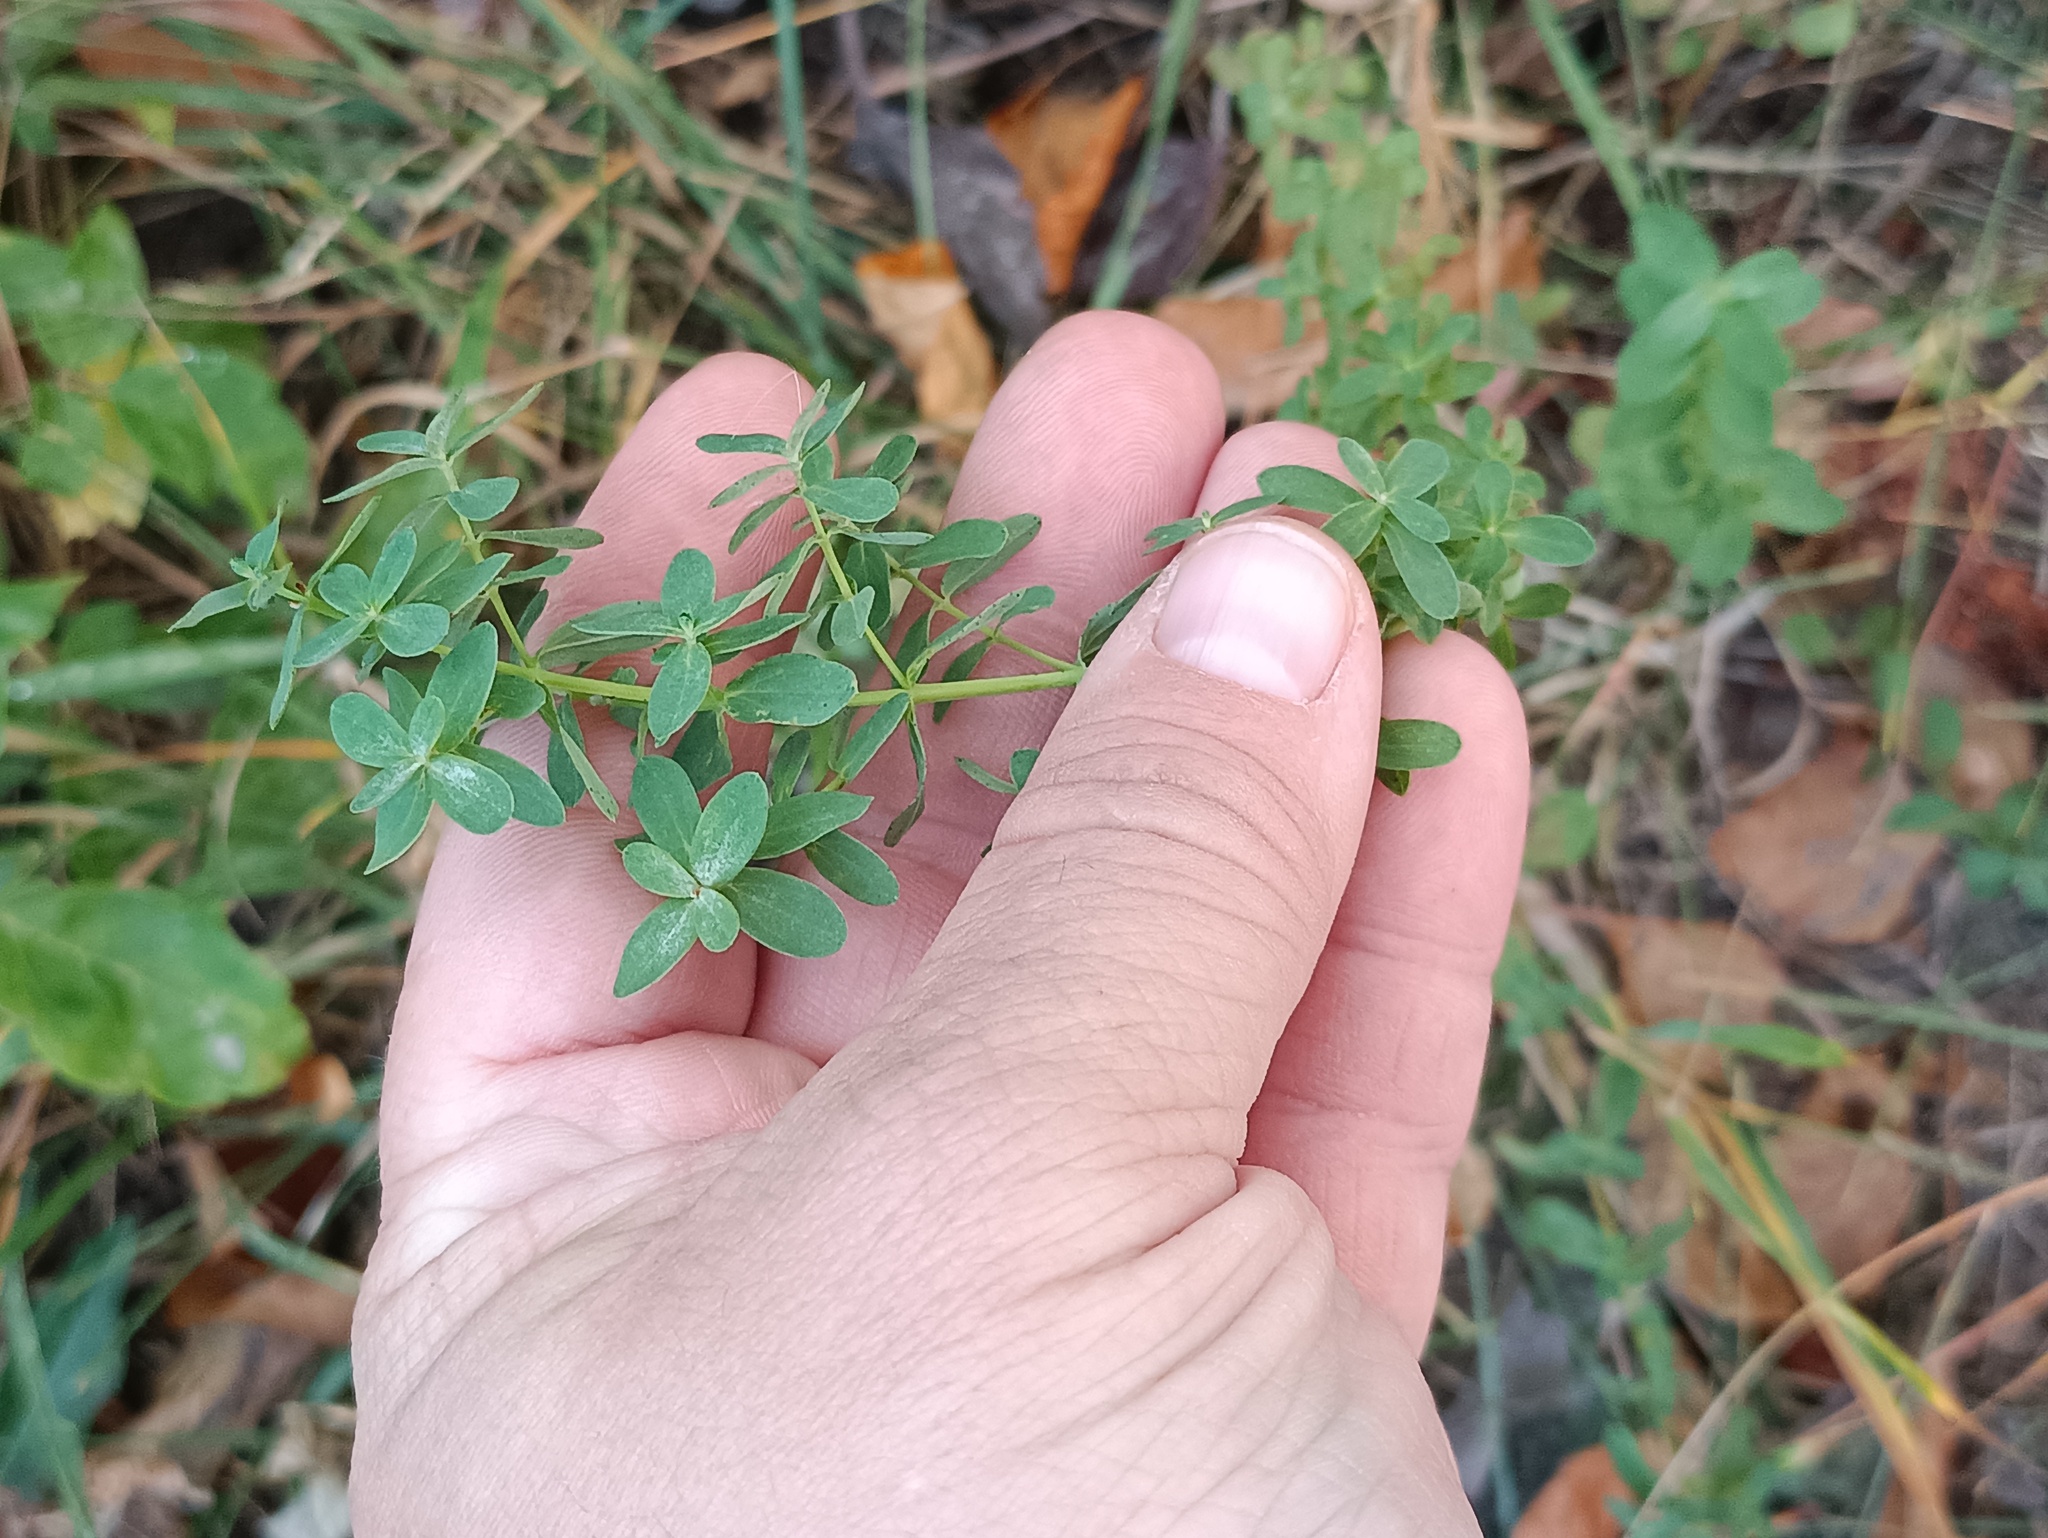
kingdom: Plantae
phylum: Tracheophyta
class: Magnoliopsida
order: Malpighiales
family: Hypericaceae
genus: Hypericum
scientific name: Hypericum perforatum
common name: Common st. johnswort
